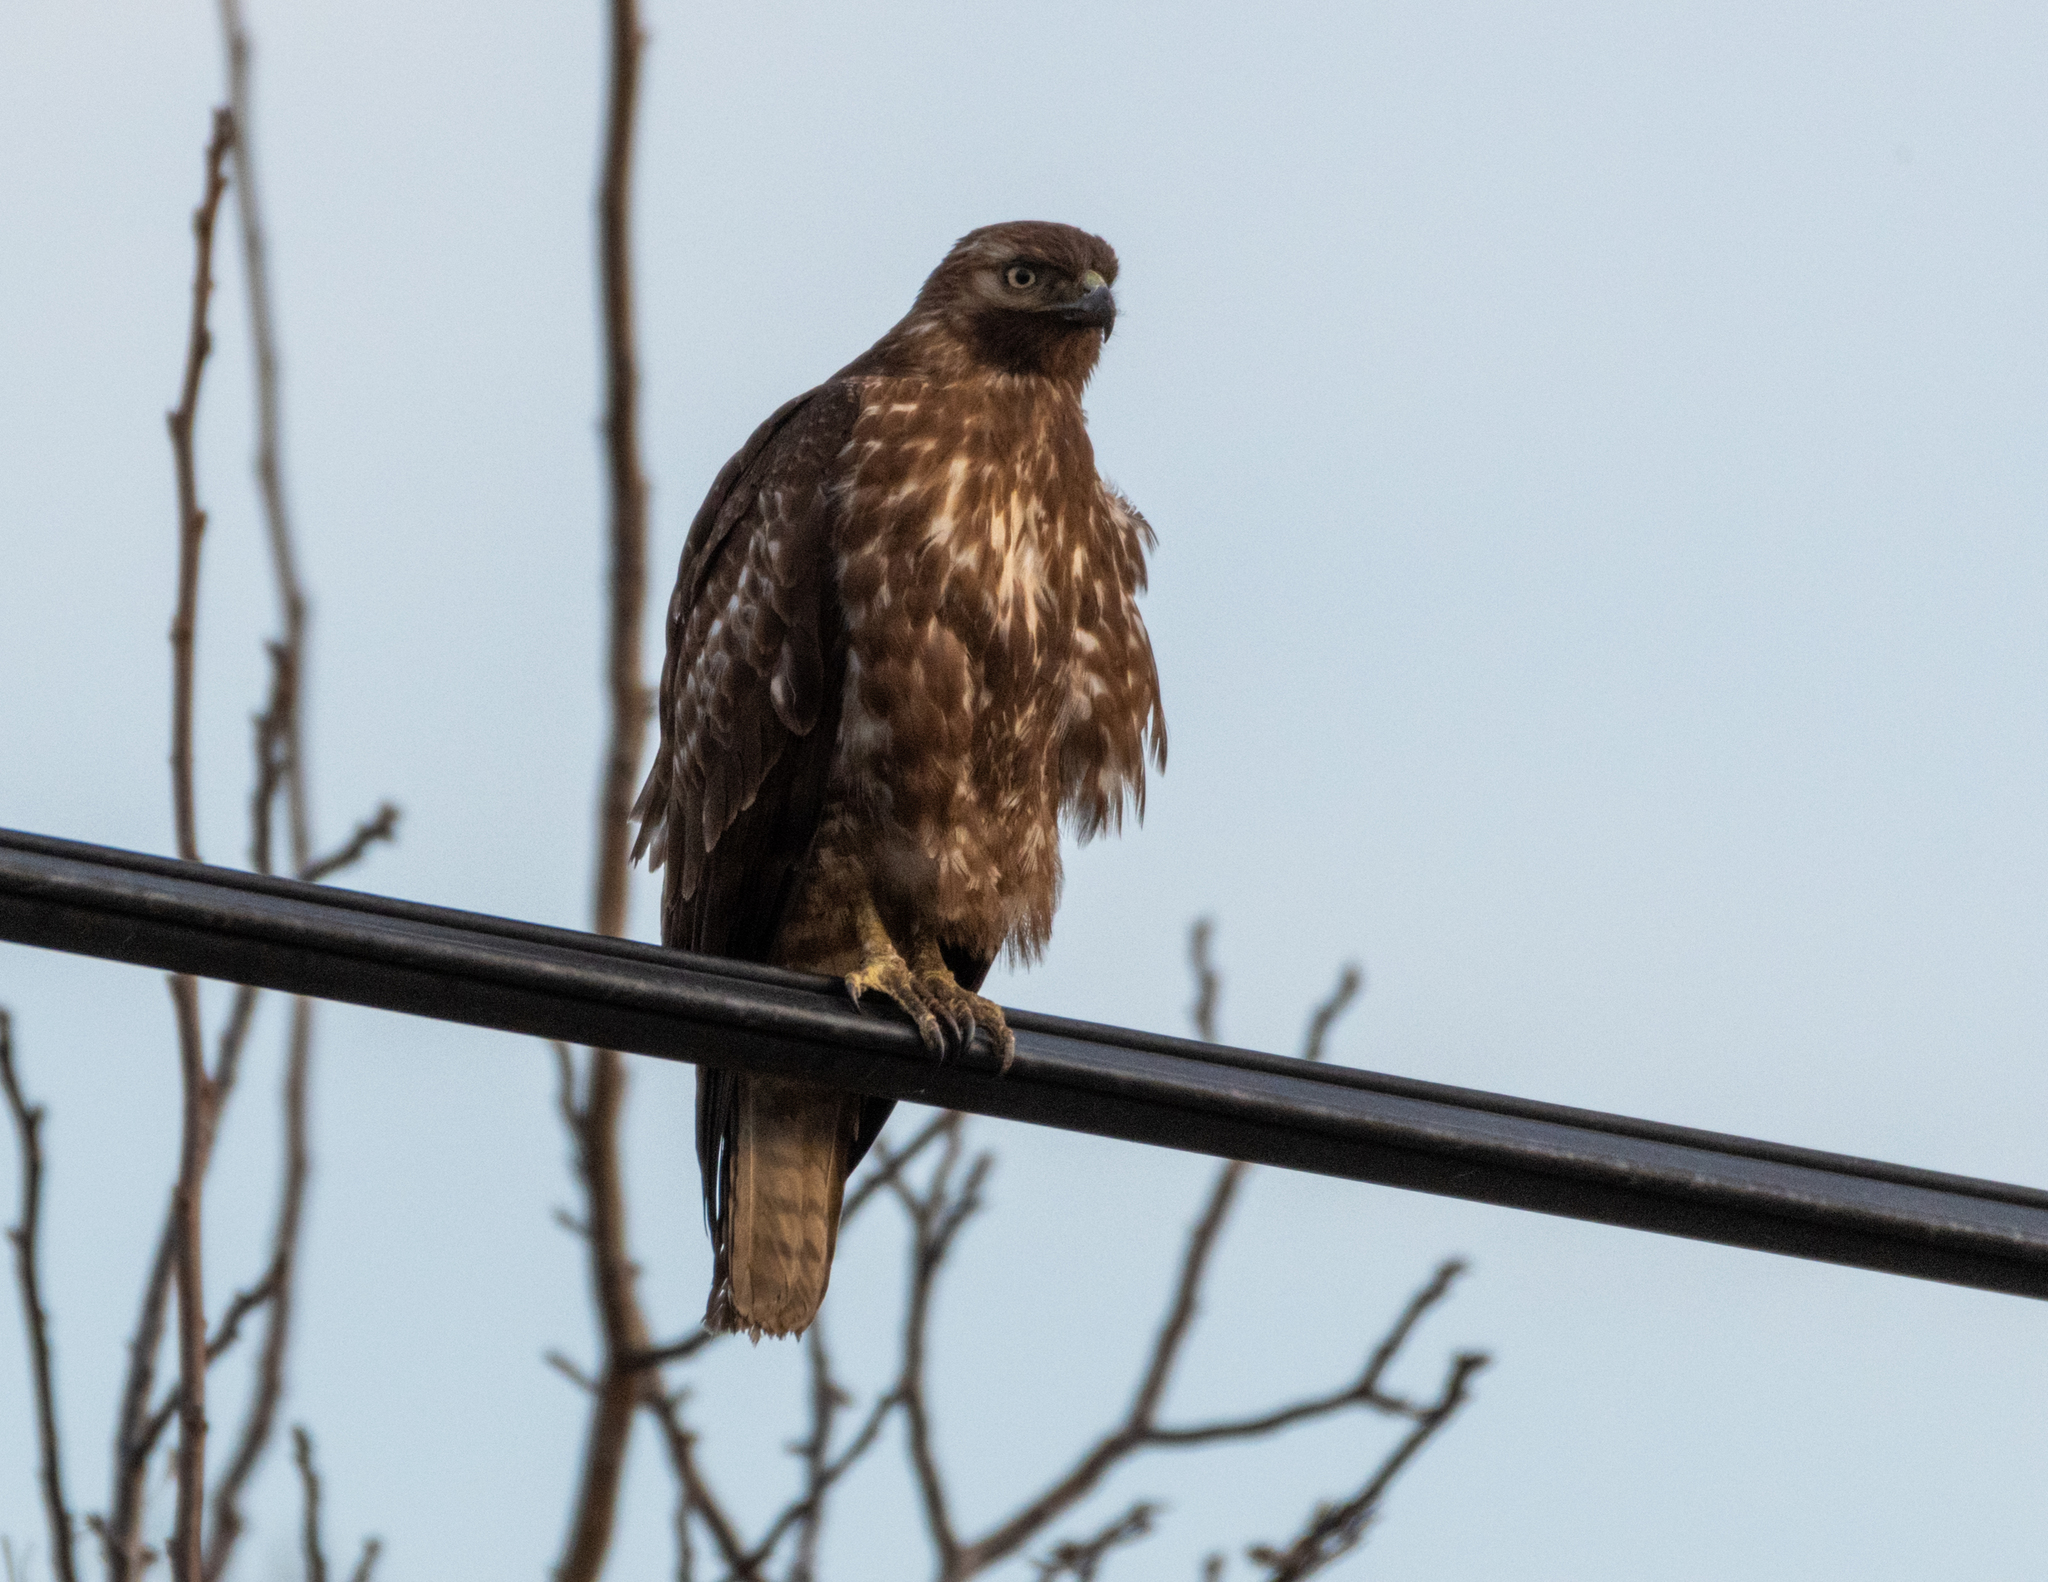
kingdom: Animalia
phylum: Chordata
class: Aves
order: Accipitriformes
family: Accipitridae
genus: Buteo
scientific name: Buteo jamaicensis
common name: Red-tailed hawk
